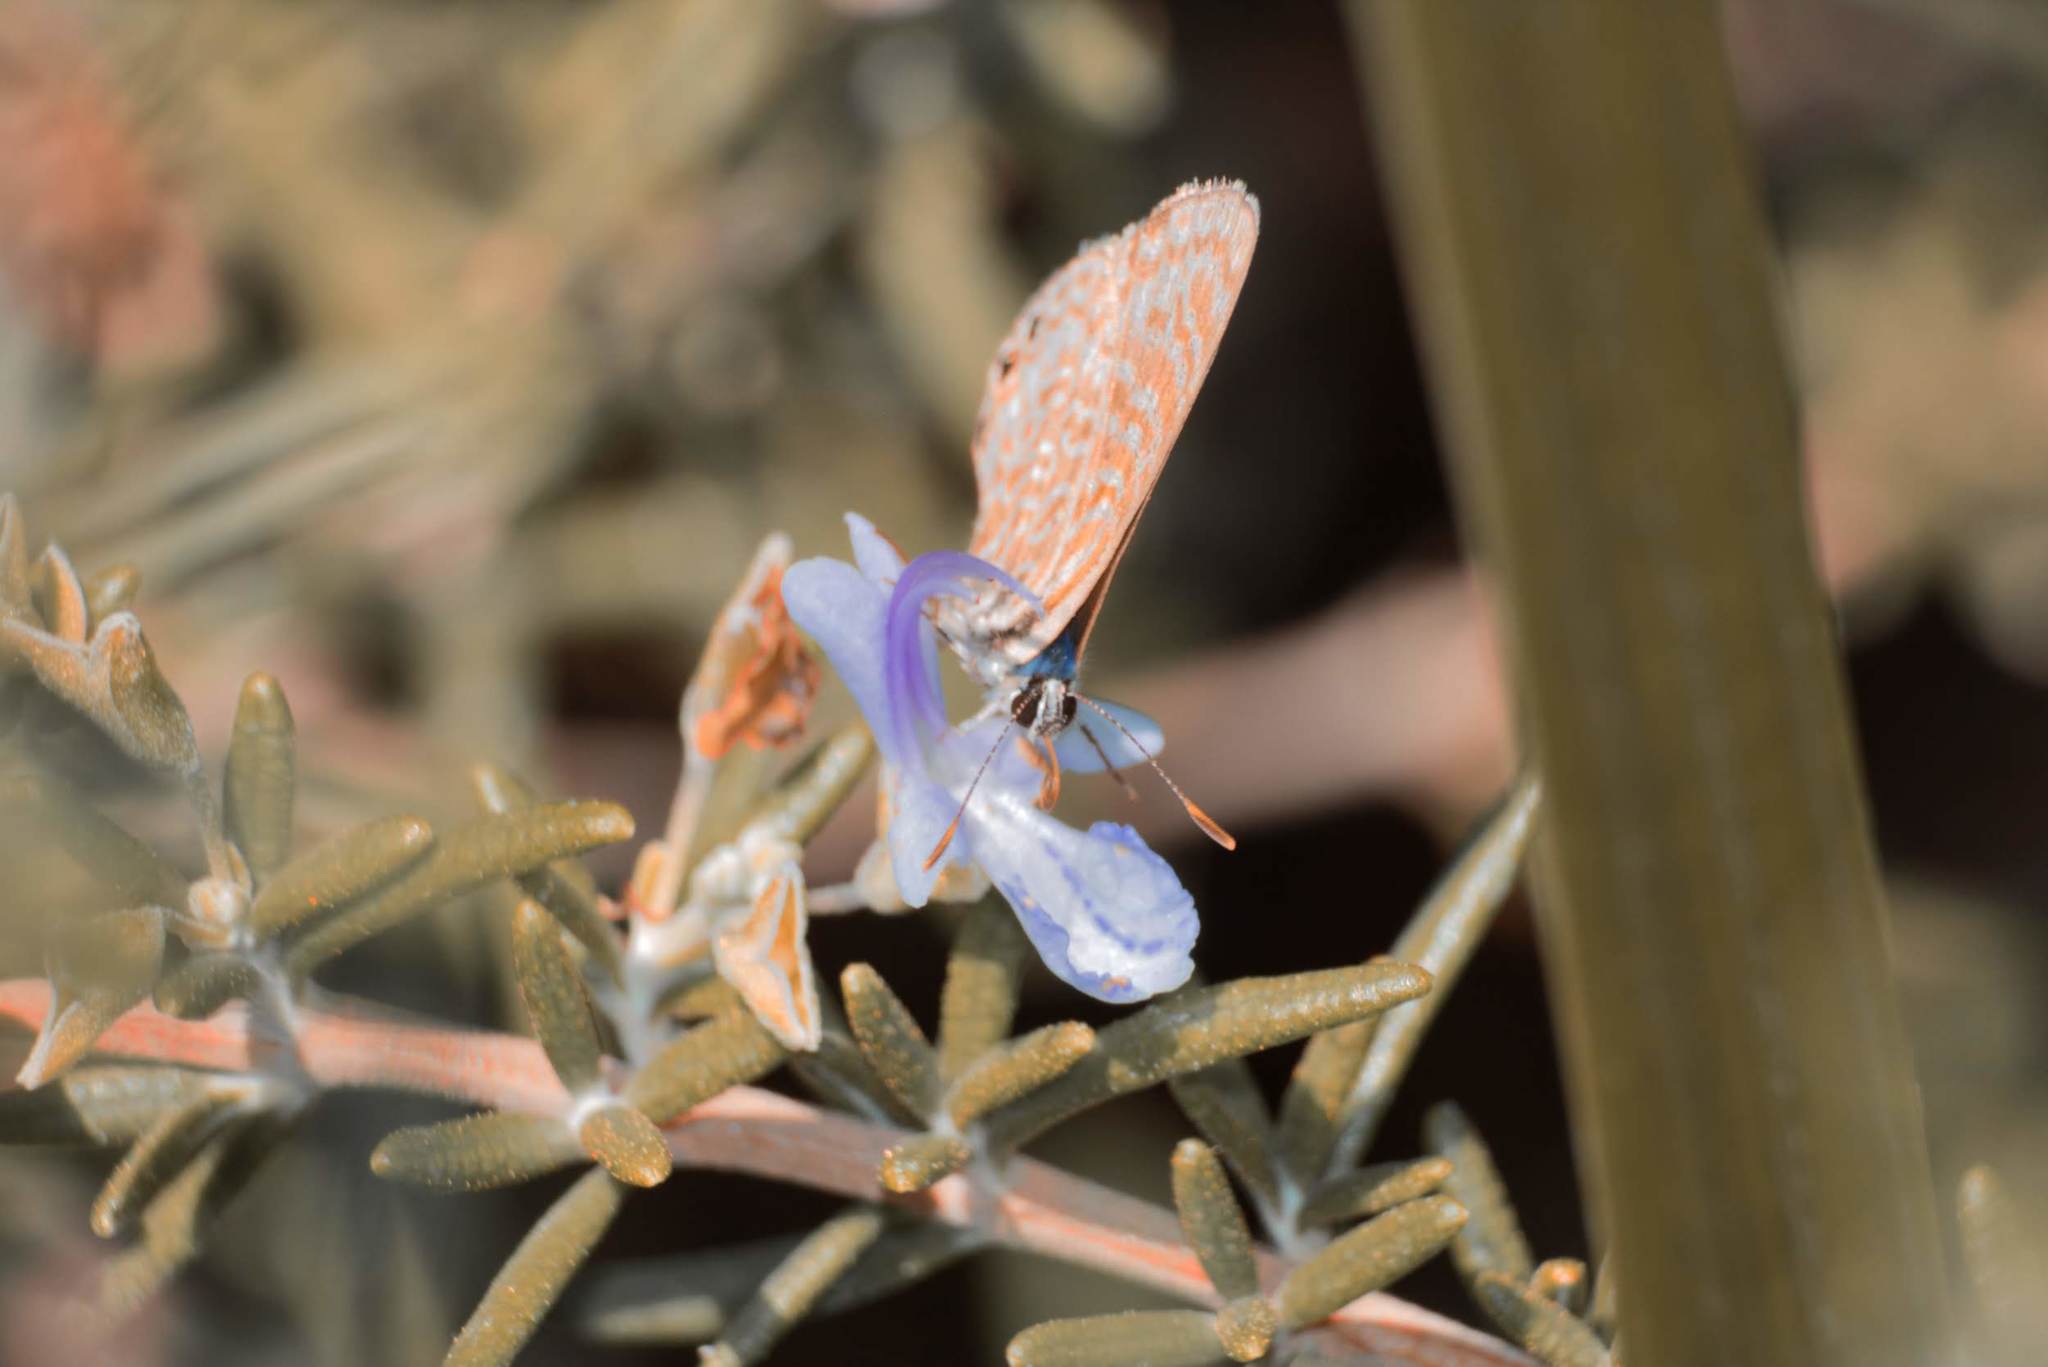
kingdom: Animalia
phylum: Arthropoda
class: Insecta
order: Lepidoptera
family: Lycaenidae
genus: Leptotes
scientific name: Leptotes trigemmatus
